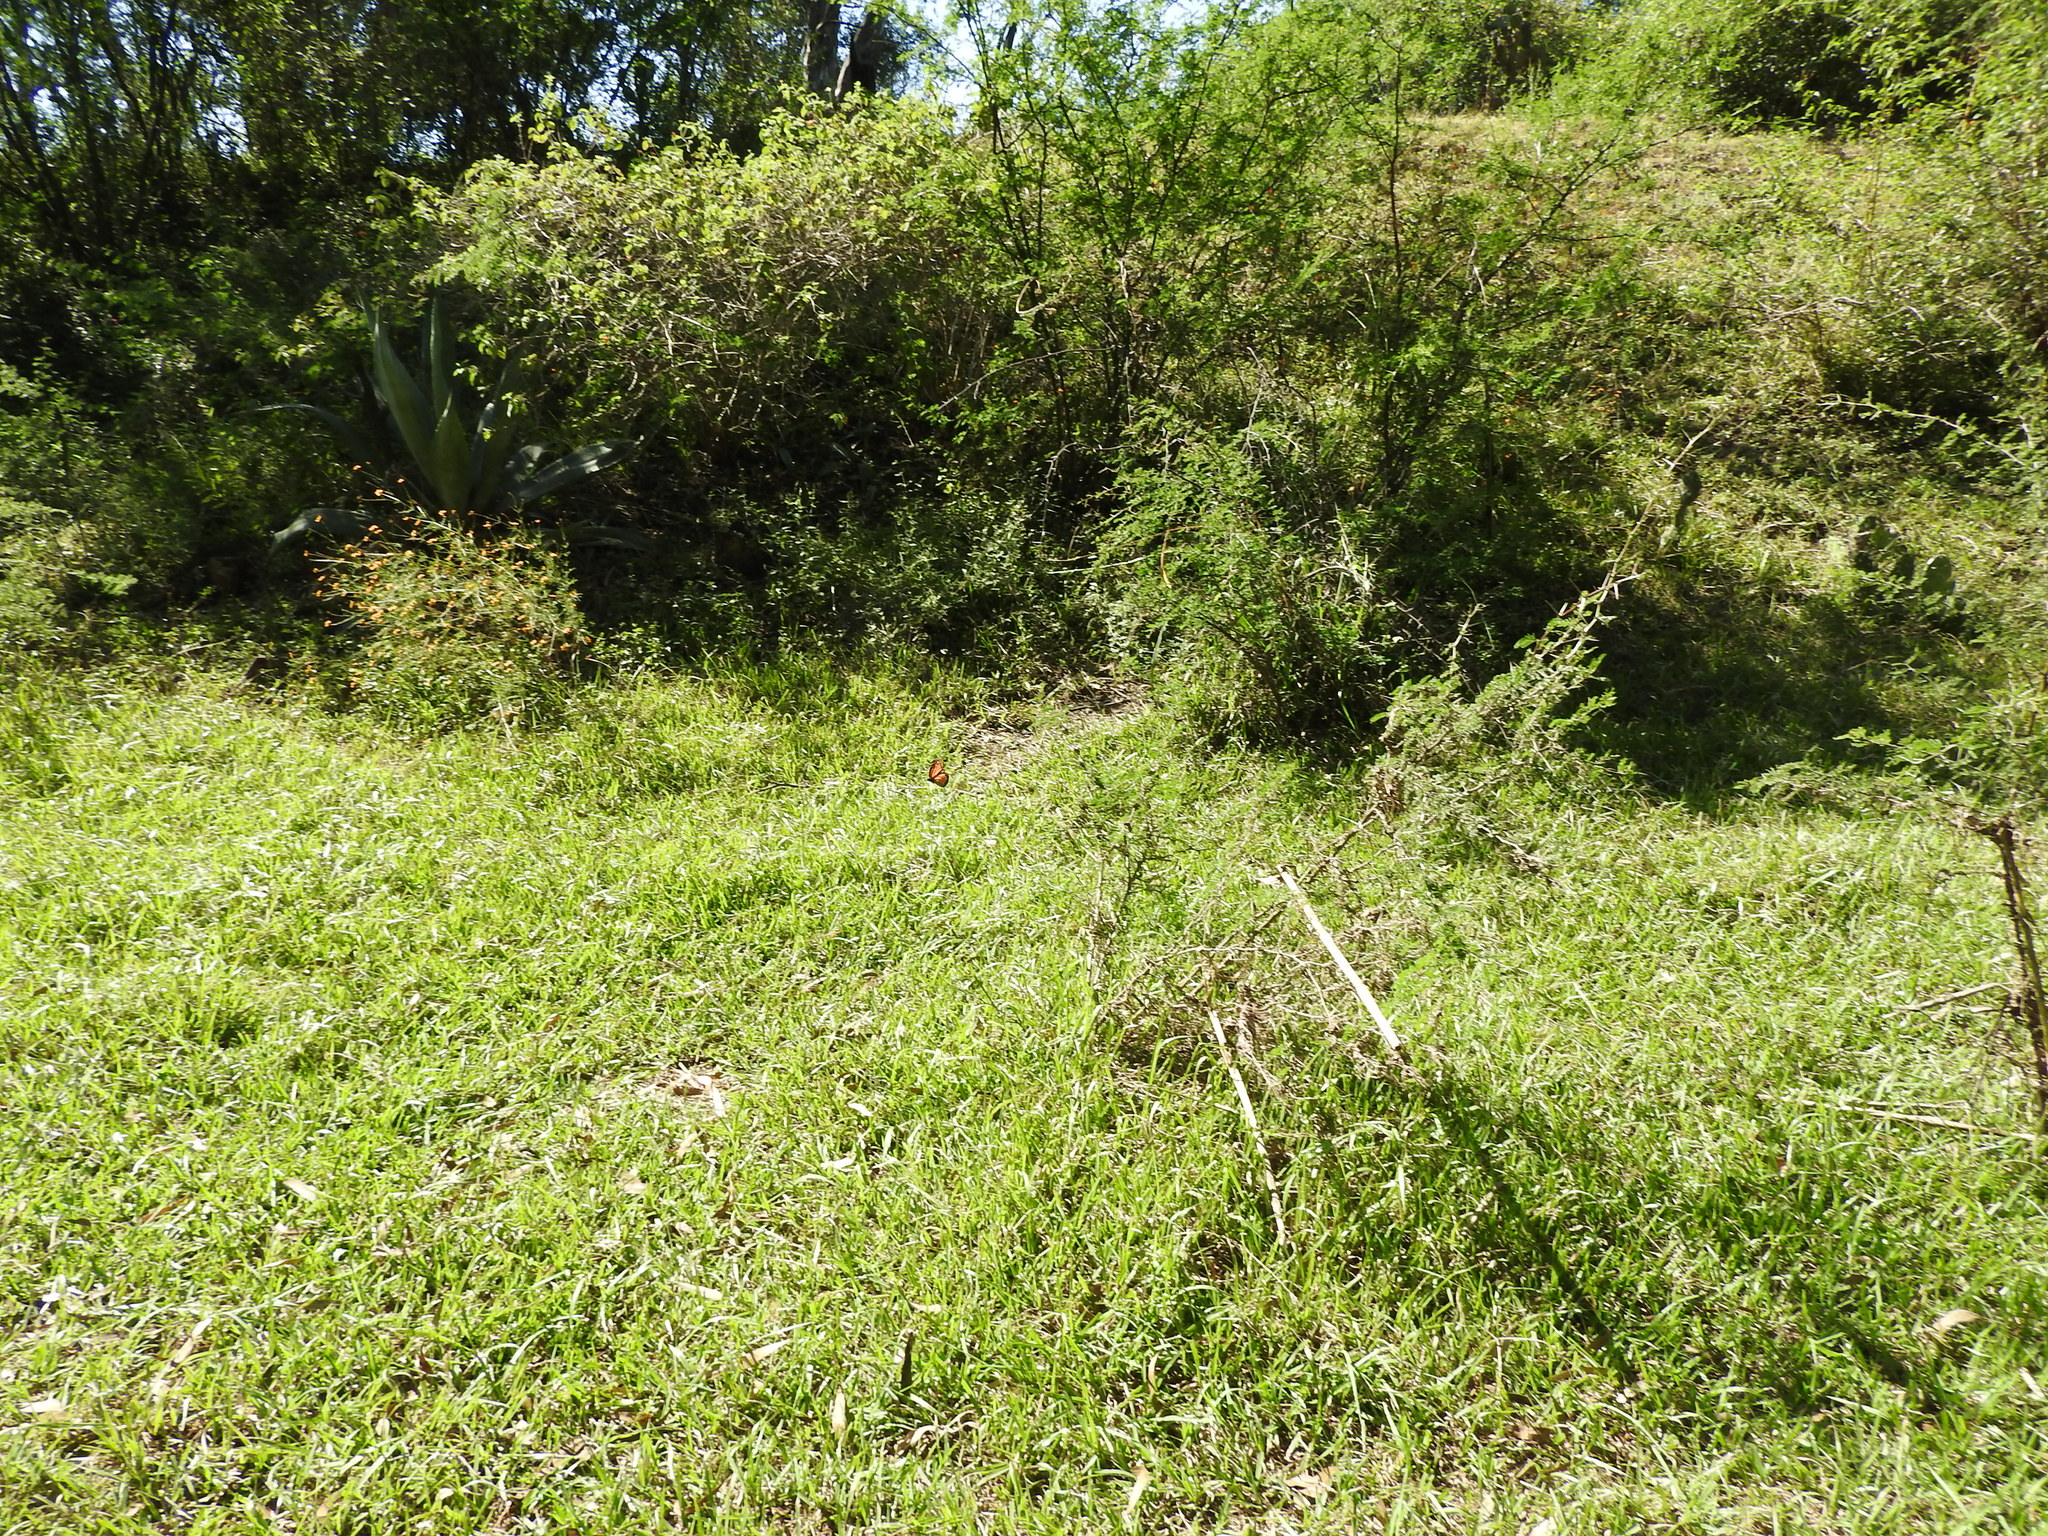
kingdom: Animalia
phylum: Arthropoda
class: Insecta
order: Lepidoptera
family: Nymphalidae
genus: Danaus
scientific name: Danaus plexippus
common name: Monarch
